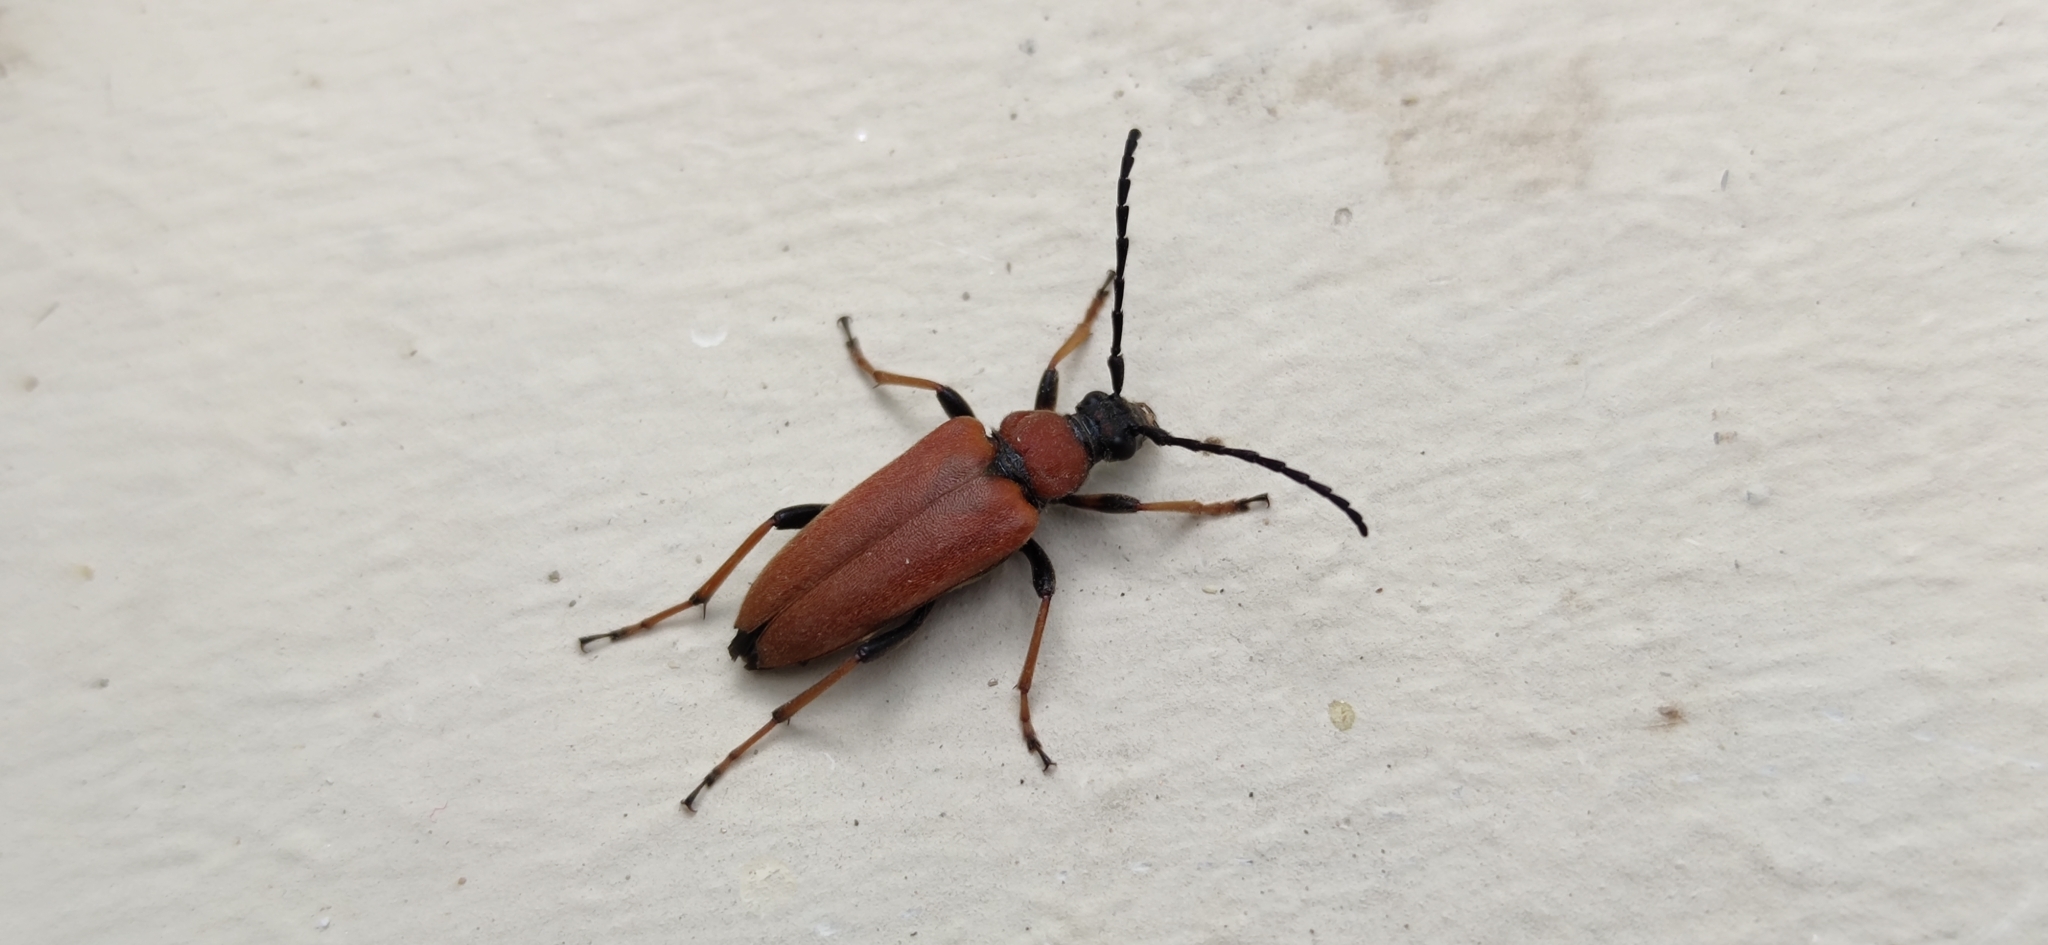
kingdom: Animalia
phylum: Arthropoda
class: Insecta
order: Coleoptera
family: Cerambycidae
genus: Stictoleptura
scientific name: Stictoleptura rubra
